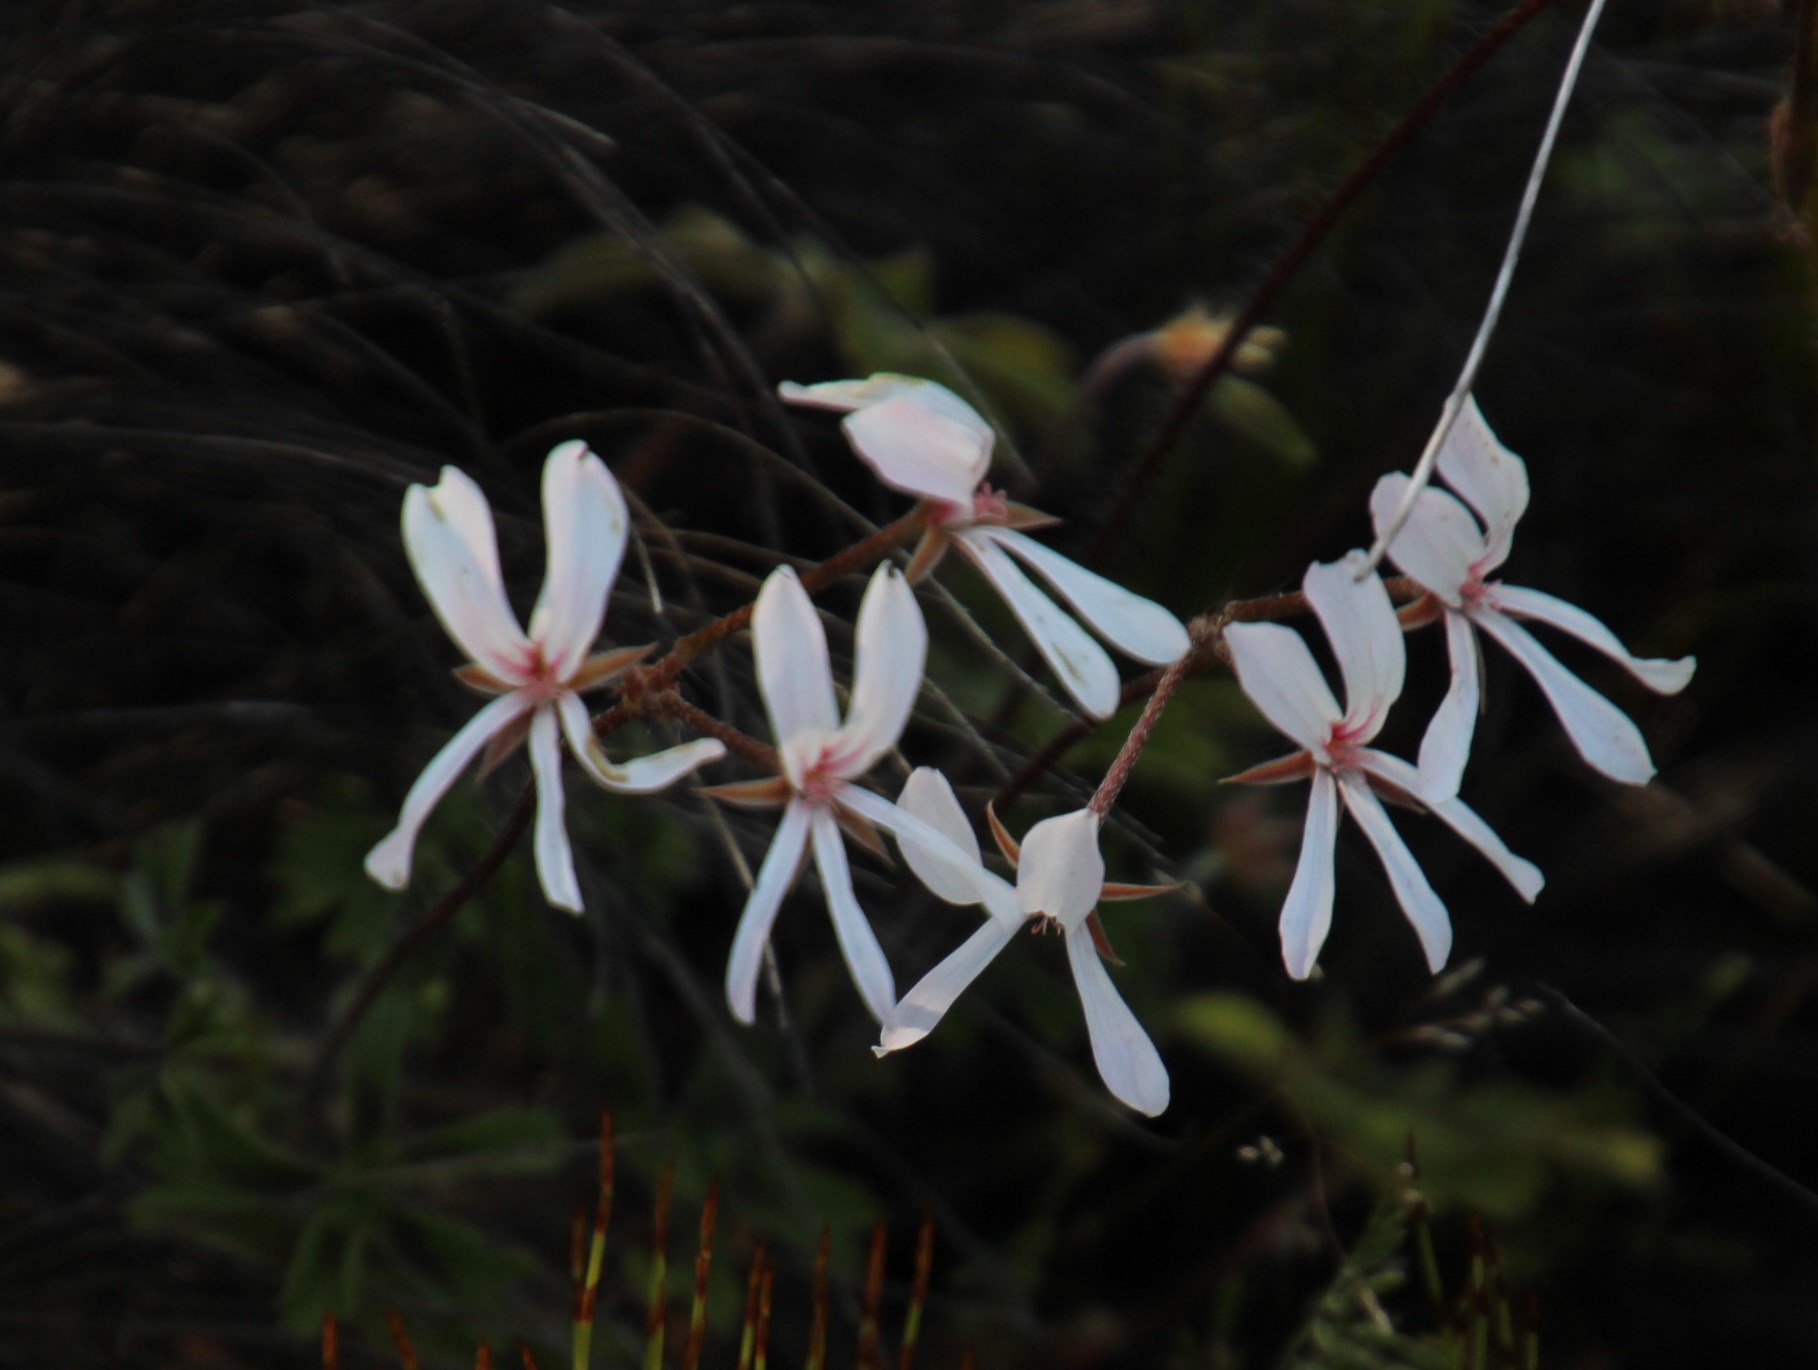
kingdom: Plantae
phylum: Tracheophyta
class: Magnoliopsida
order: Geraniales
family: Geraniaceae
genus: Pelargonium
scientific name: Pelargonium alchemilloides
